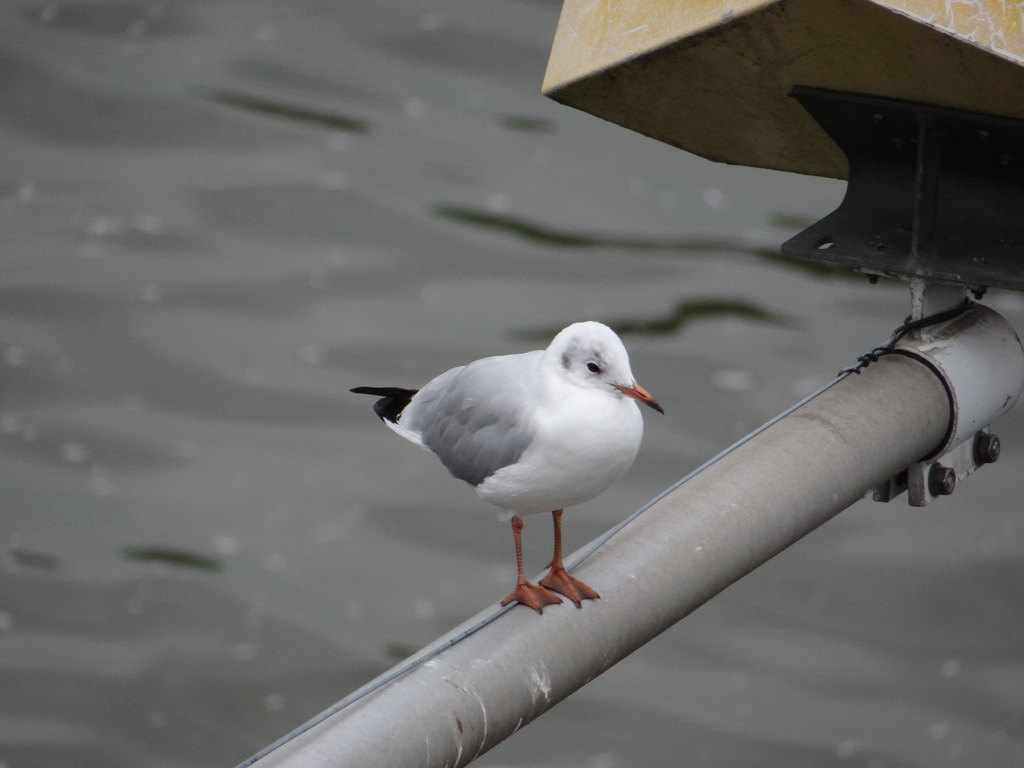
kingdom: Animalia
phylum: Chordata
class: Aves
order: Charadriiformes
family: Laridae
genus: Chroicocephalus
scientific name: Chroicocephalus ridibundus
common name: Black-headed gull
